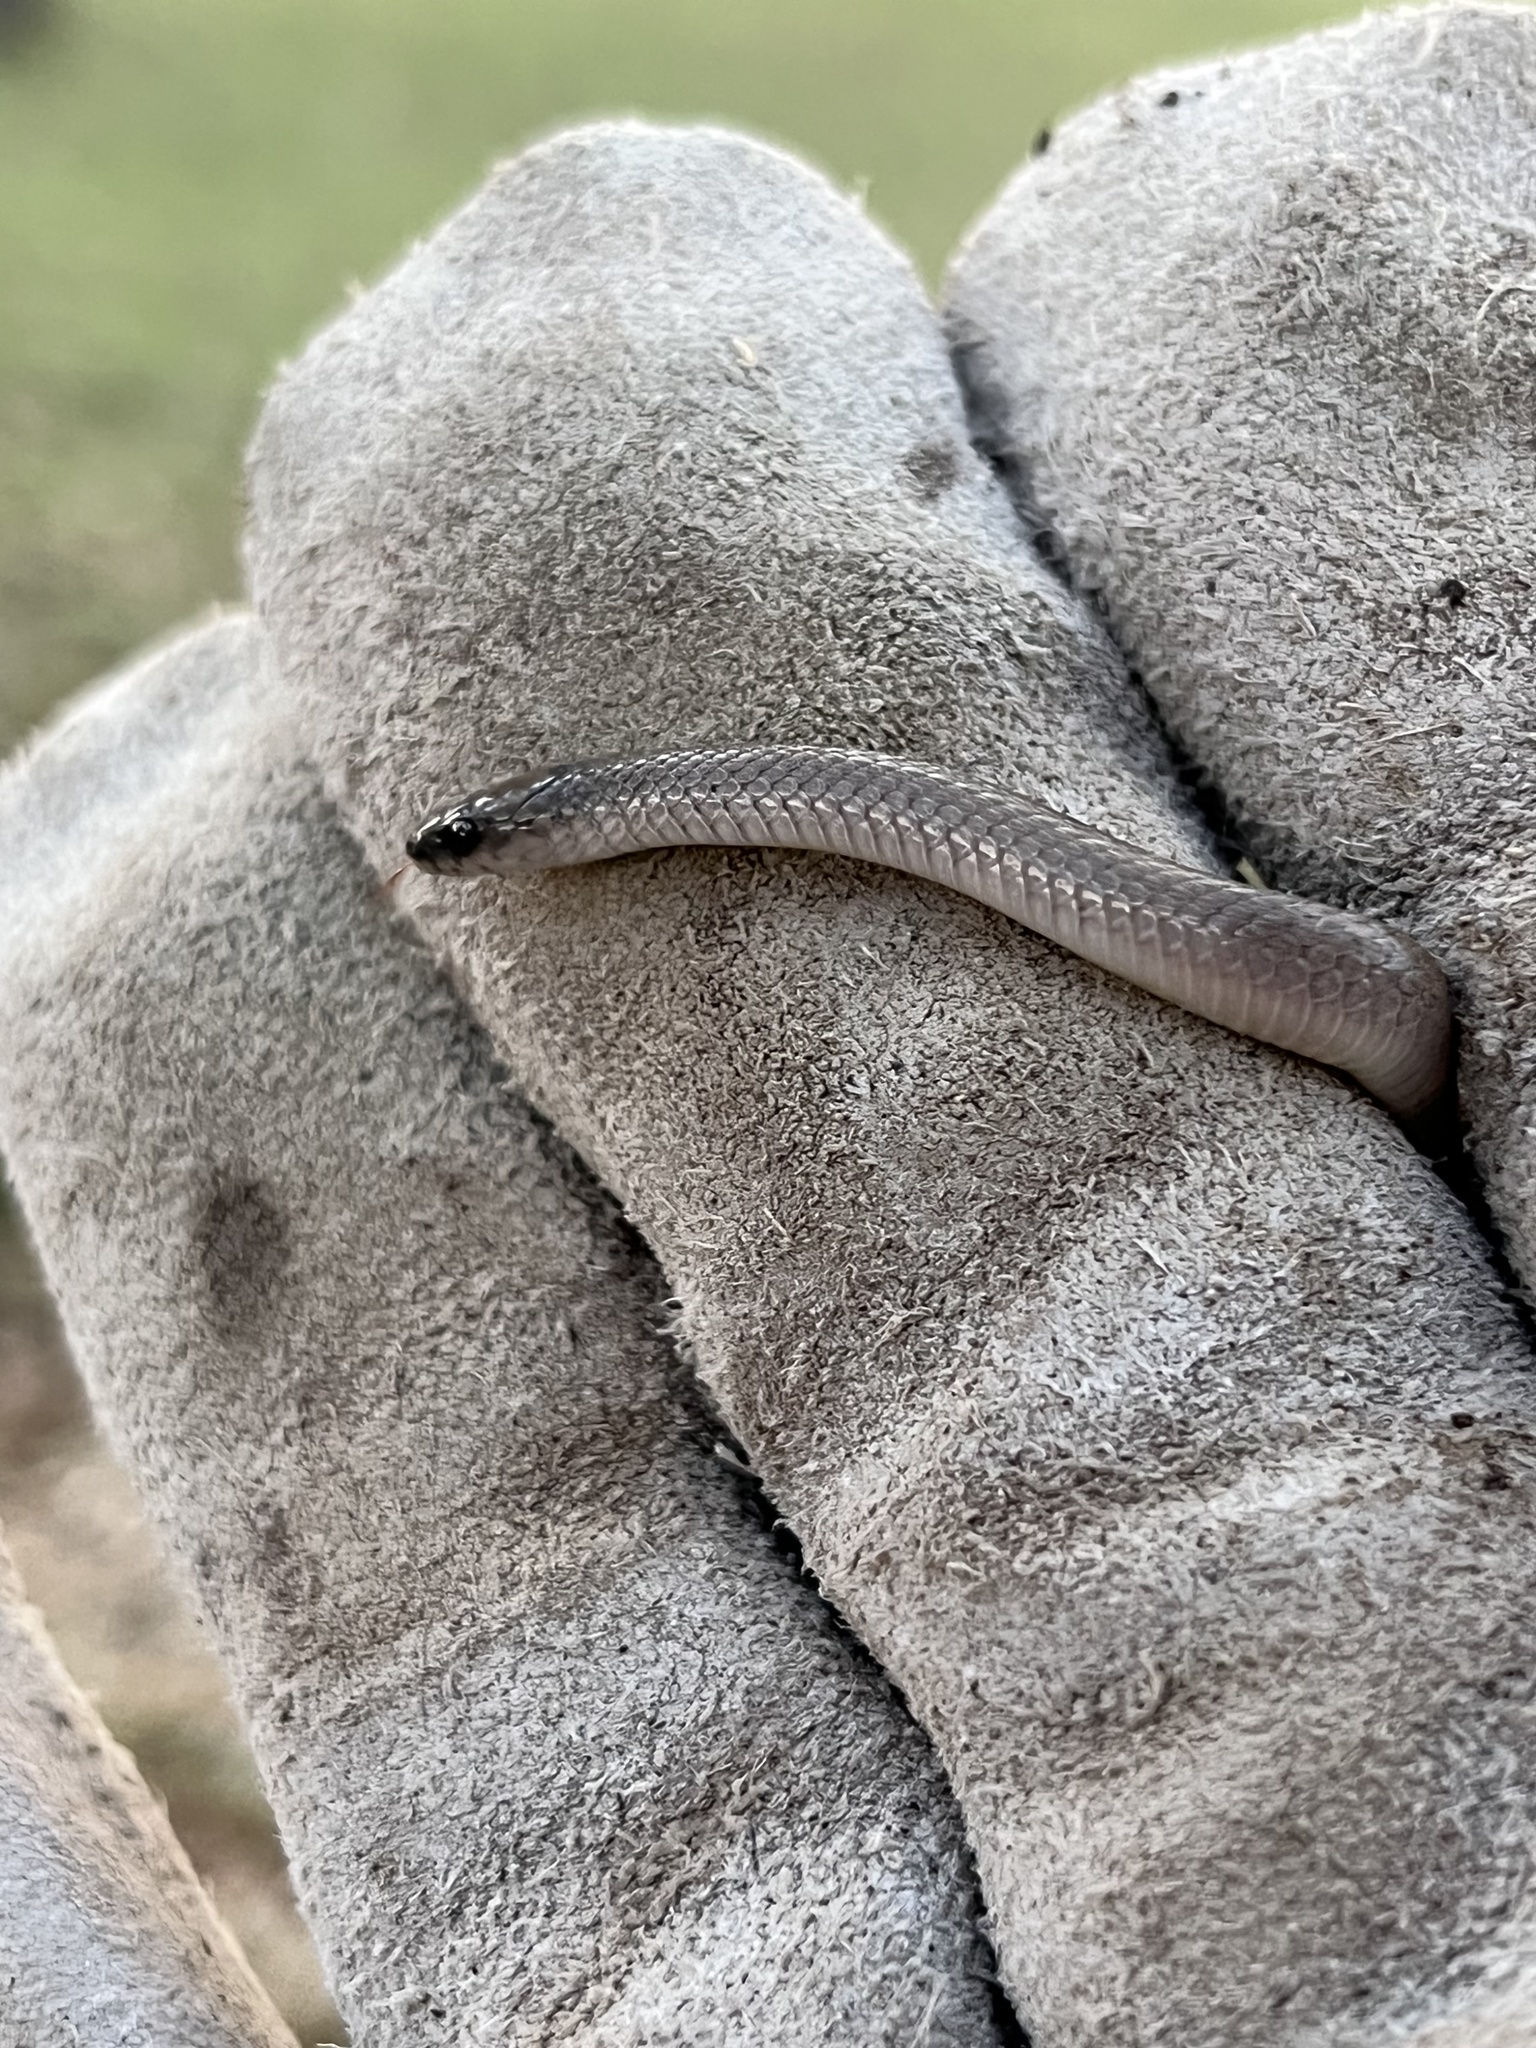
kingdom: Animalia
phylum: Chordata
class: Squamata
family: Colubridae
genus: Haldea
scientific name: Haldea striatula
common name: Rough earth snake
